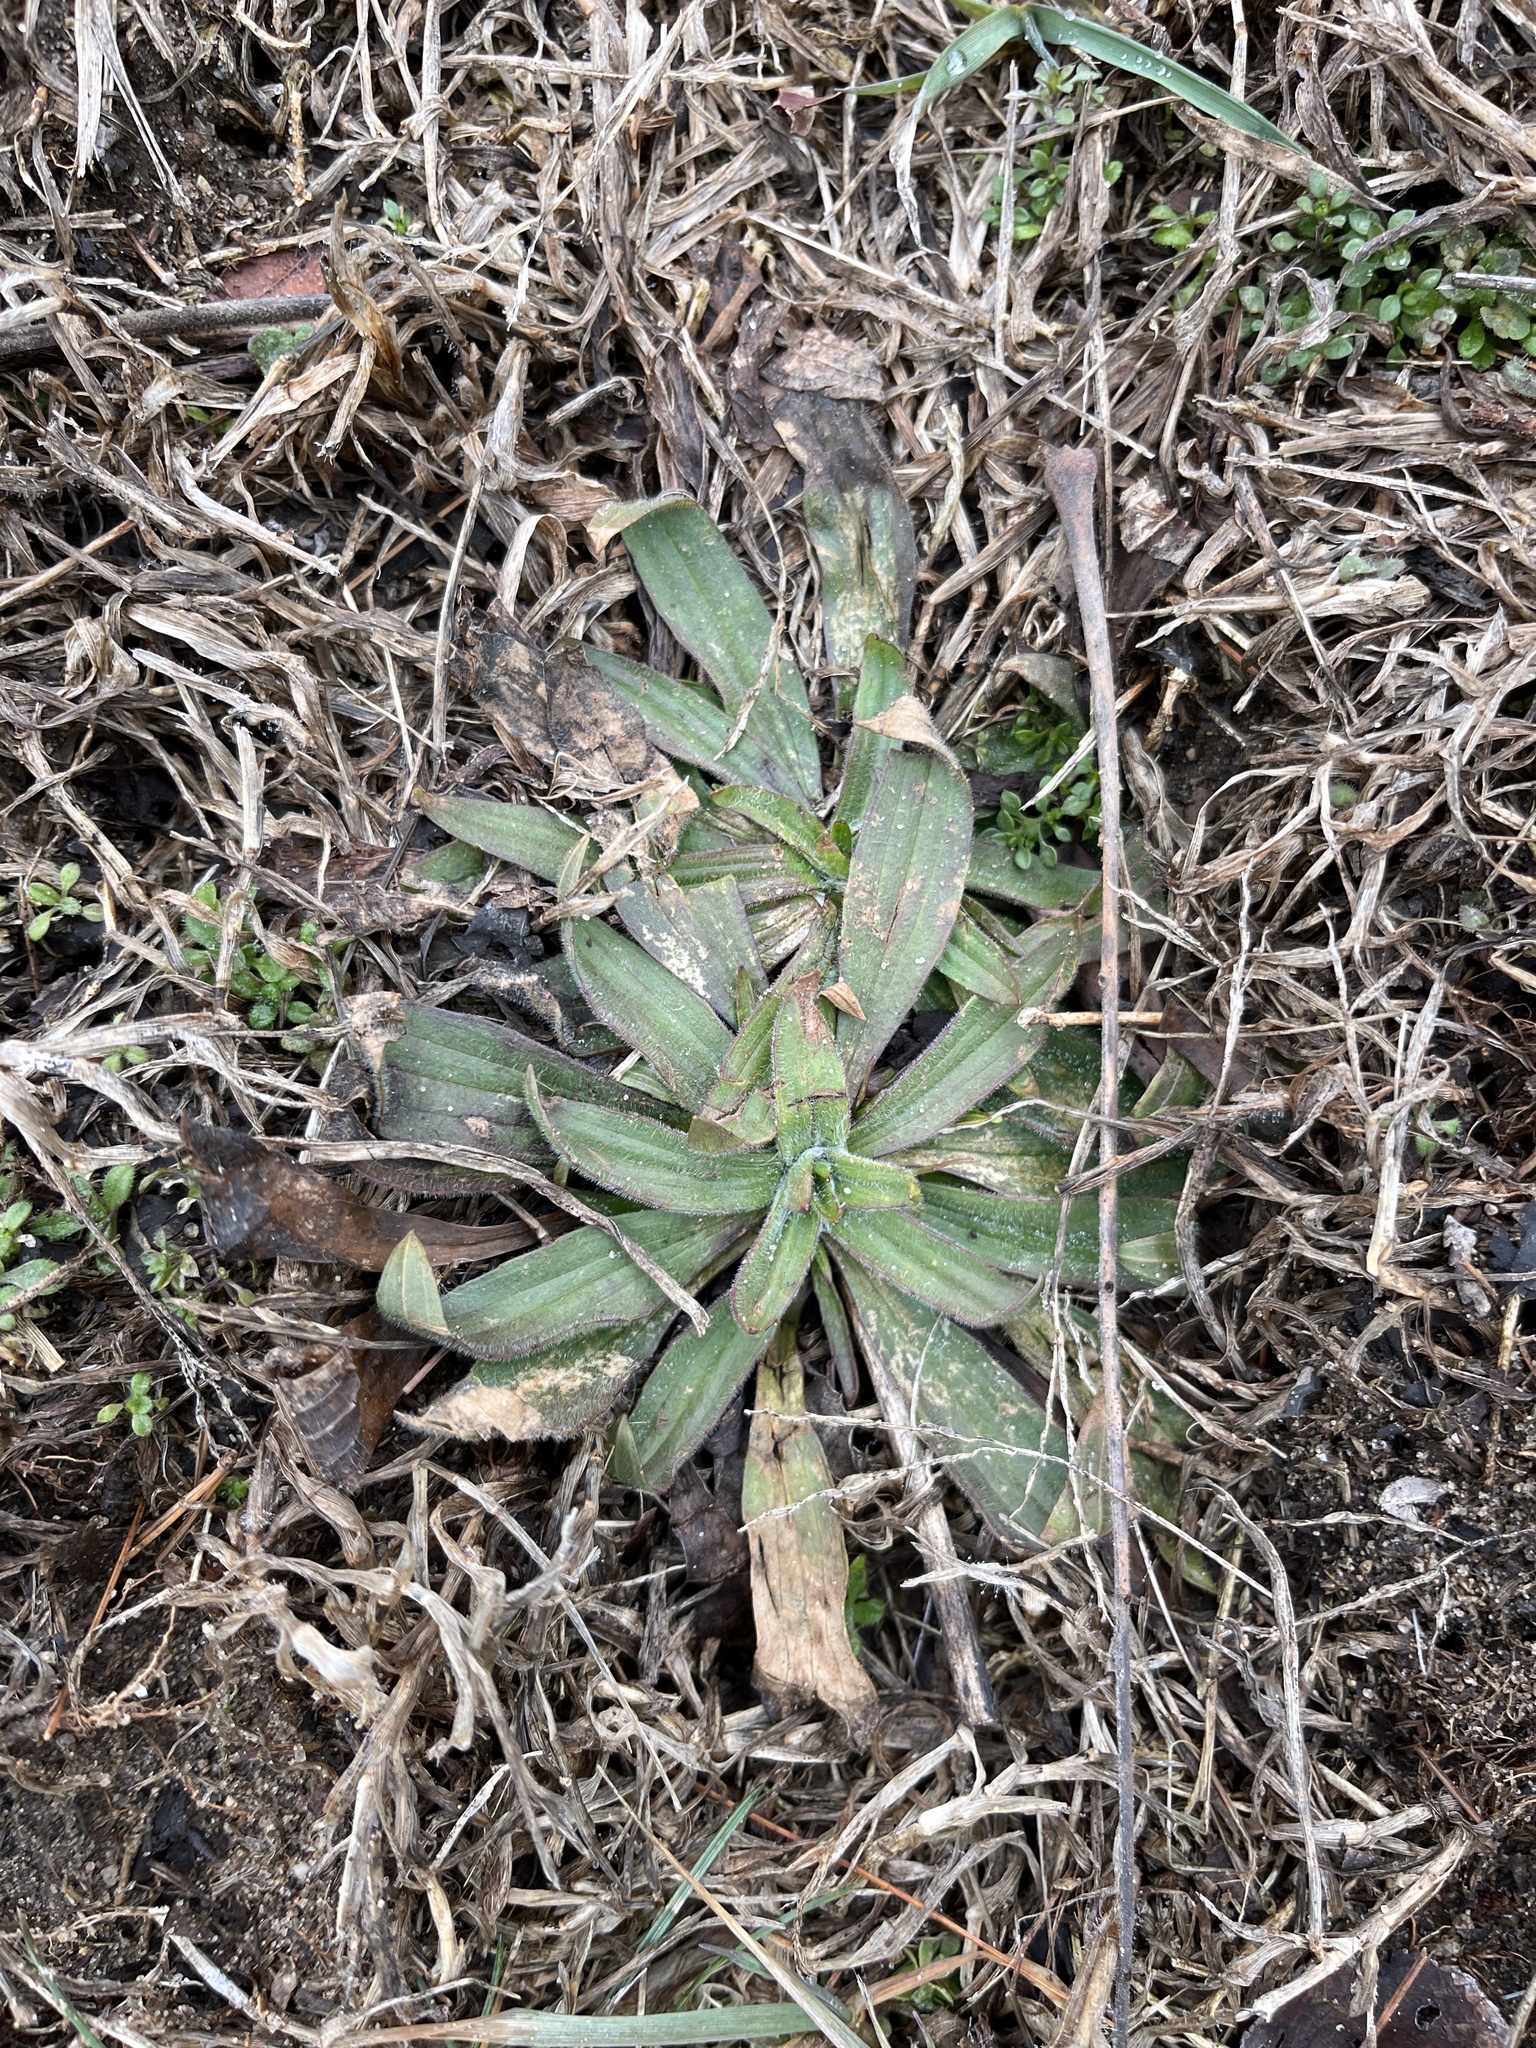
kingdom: Plantae
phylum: Tracheophyta
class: Magnoliopsida
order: Lamiales
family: Plantaginaceae
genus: Plantago
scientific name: Plantago lanceolata
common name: Ribwort plantain
